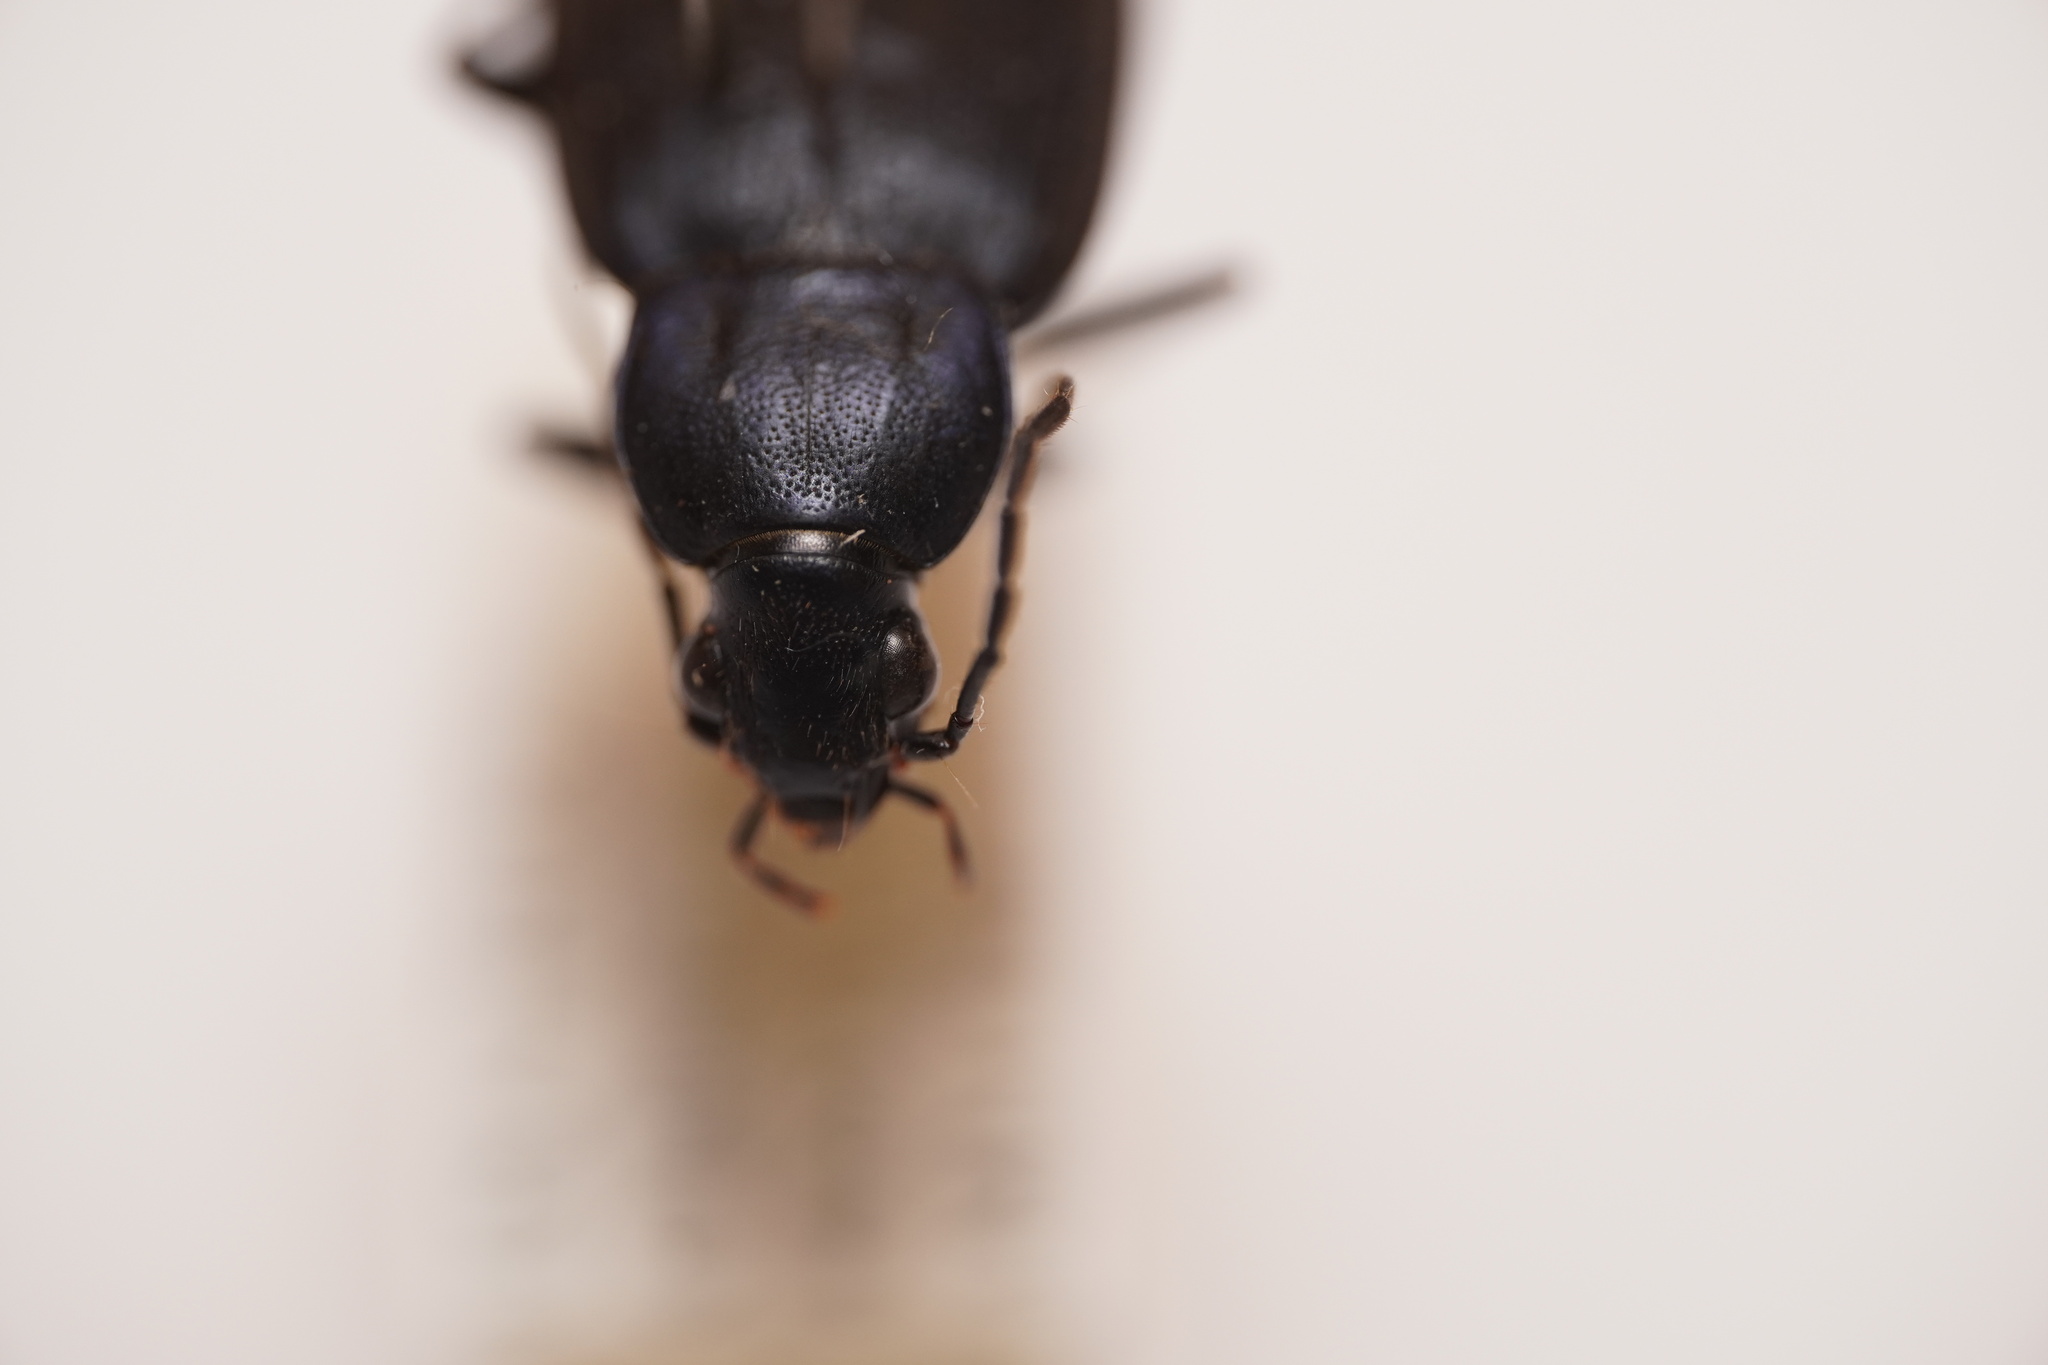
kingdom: Animalia
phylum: Arthropoda
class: Insecta
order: Coleoptera
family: Carabidae
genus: Chlaenius
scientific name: Chlaenius orbus
